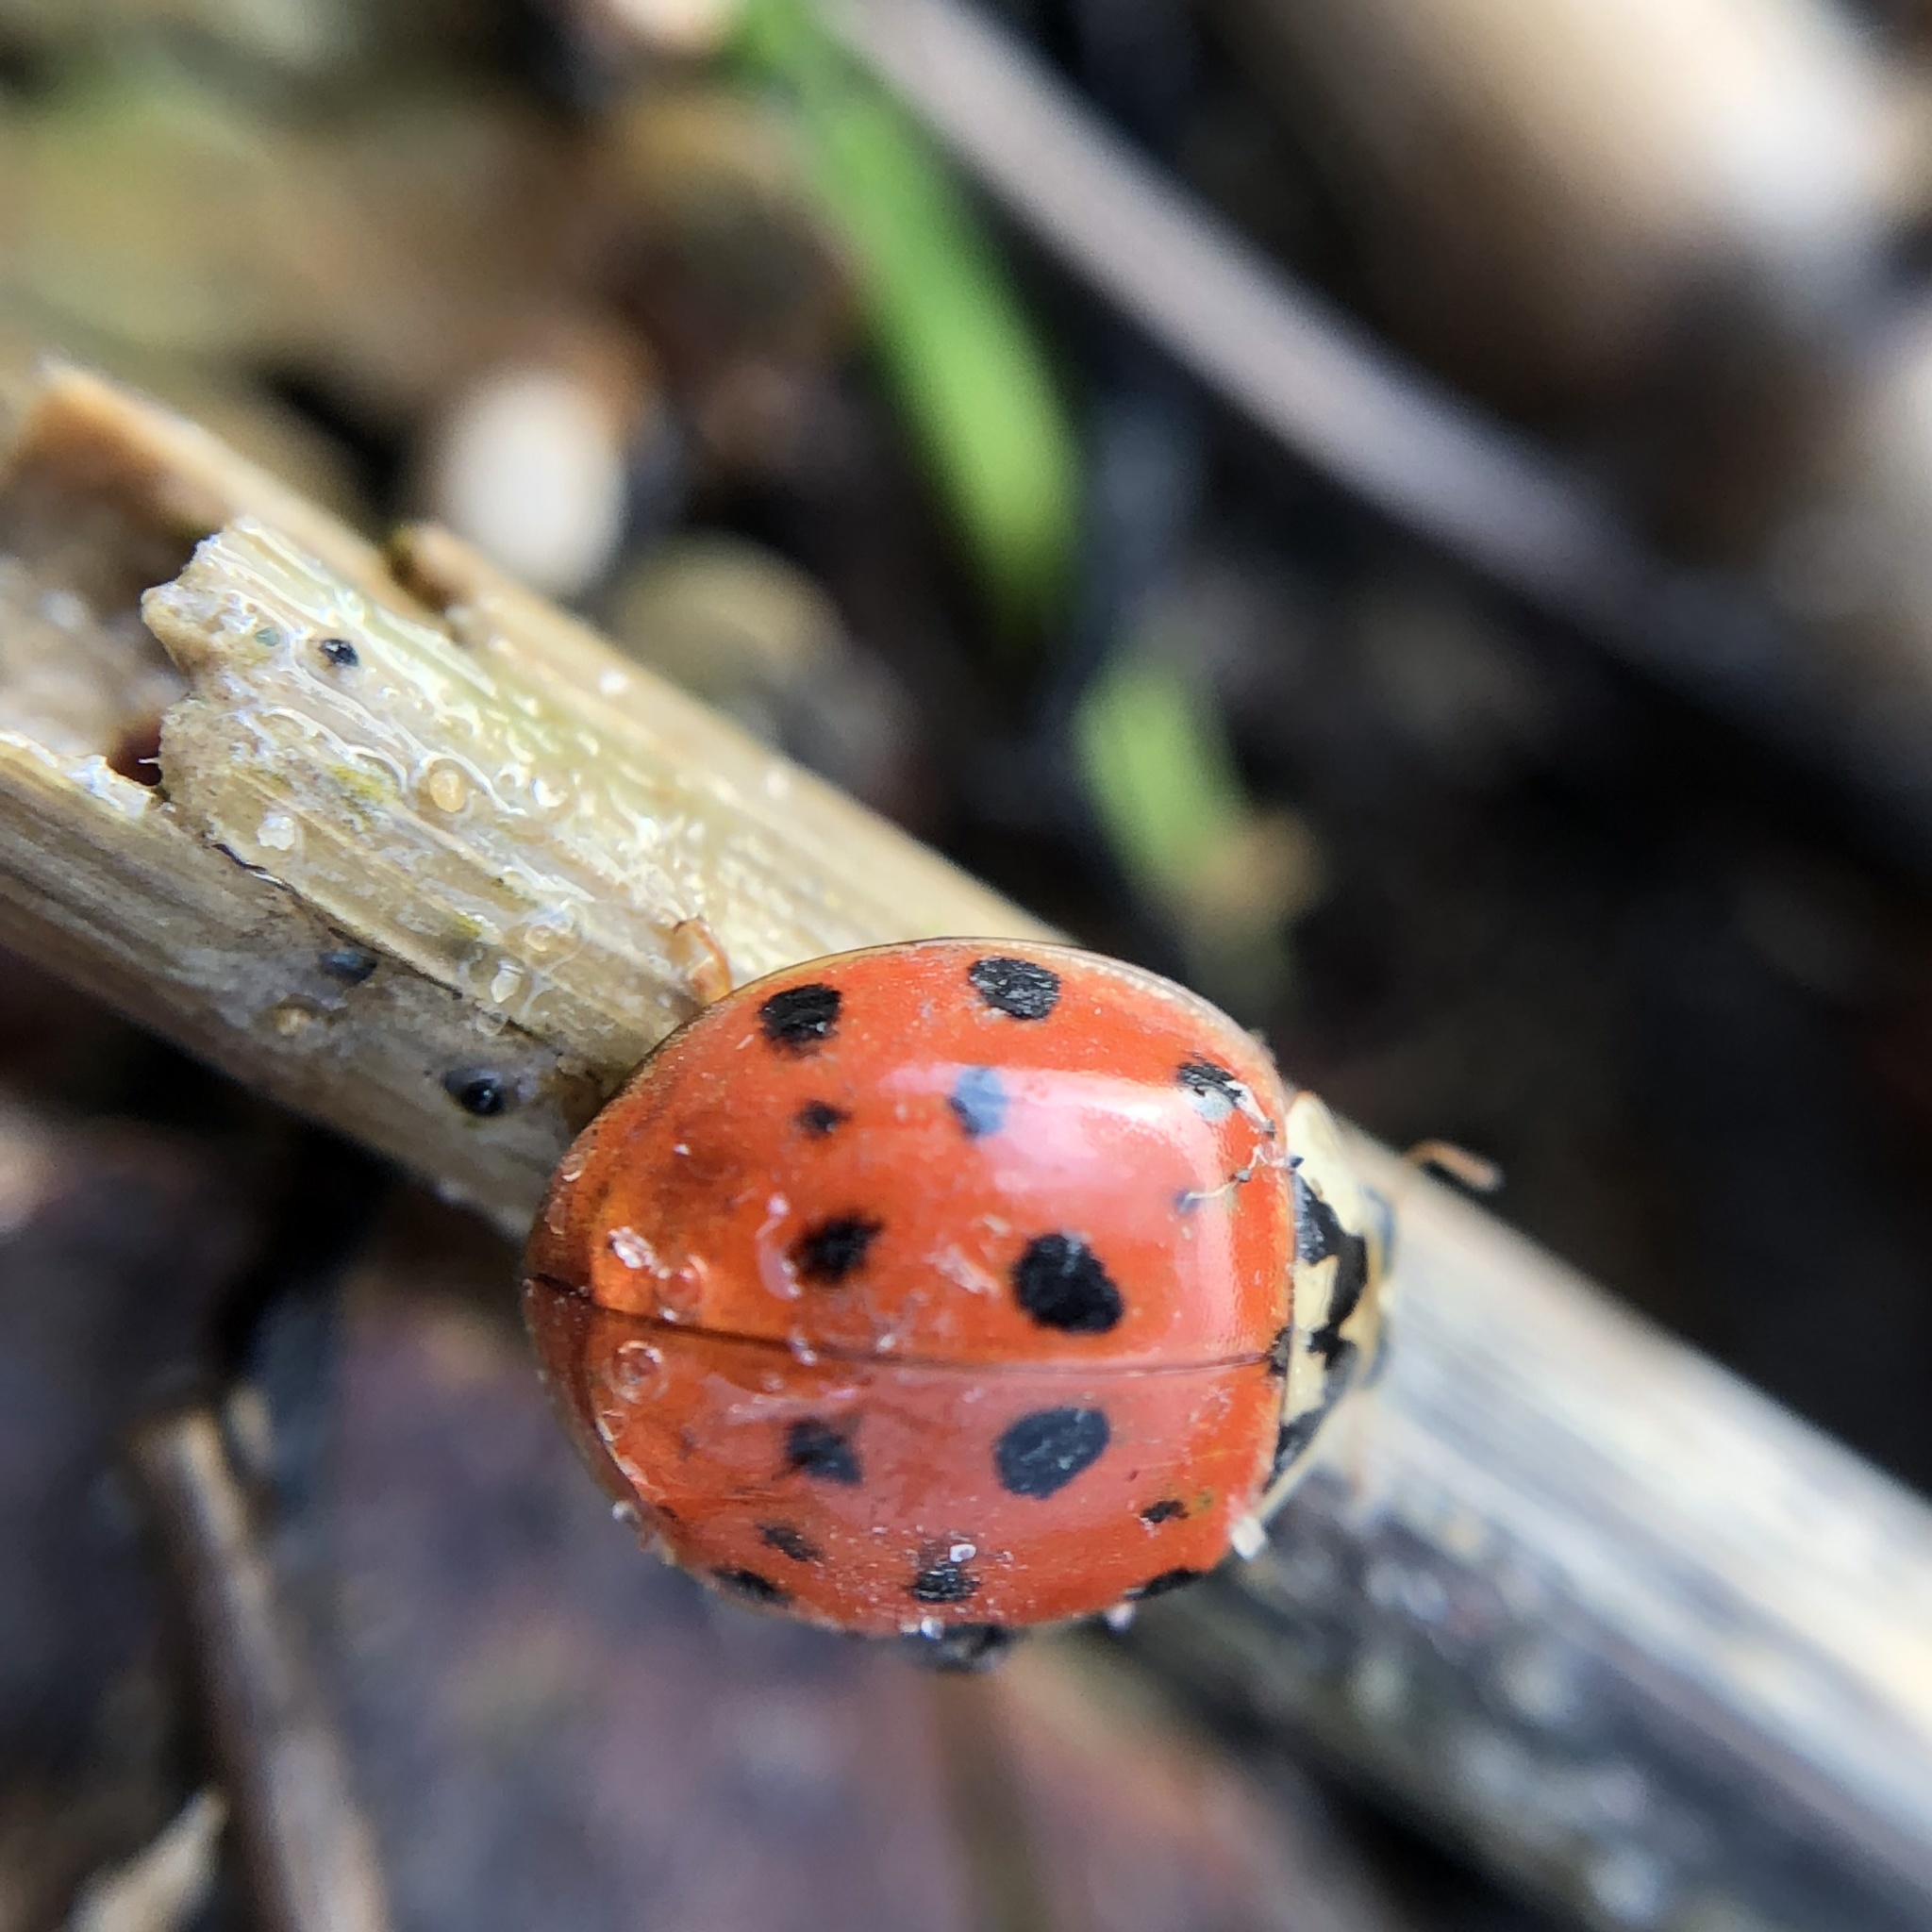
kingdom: Animalia
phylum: Arthropoda
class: Insecta
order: Coleoptera
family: Coccinellidae
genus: Harmonia
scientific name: Harmonia axyridis
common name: Harlequin ladybird
